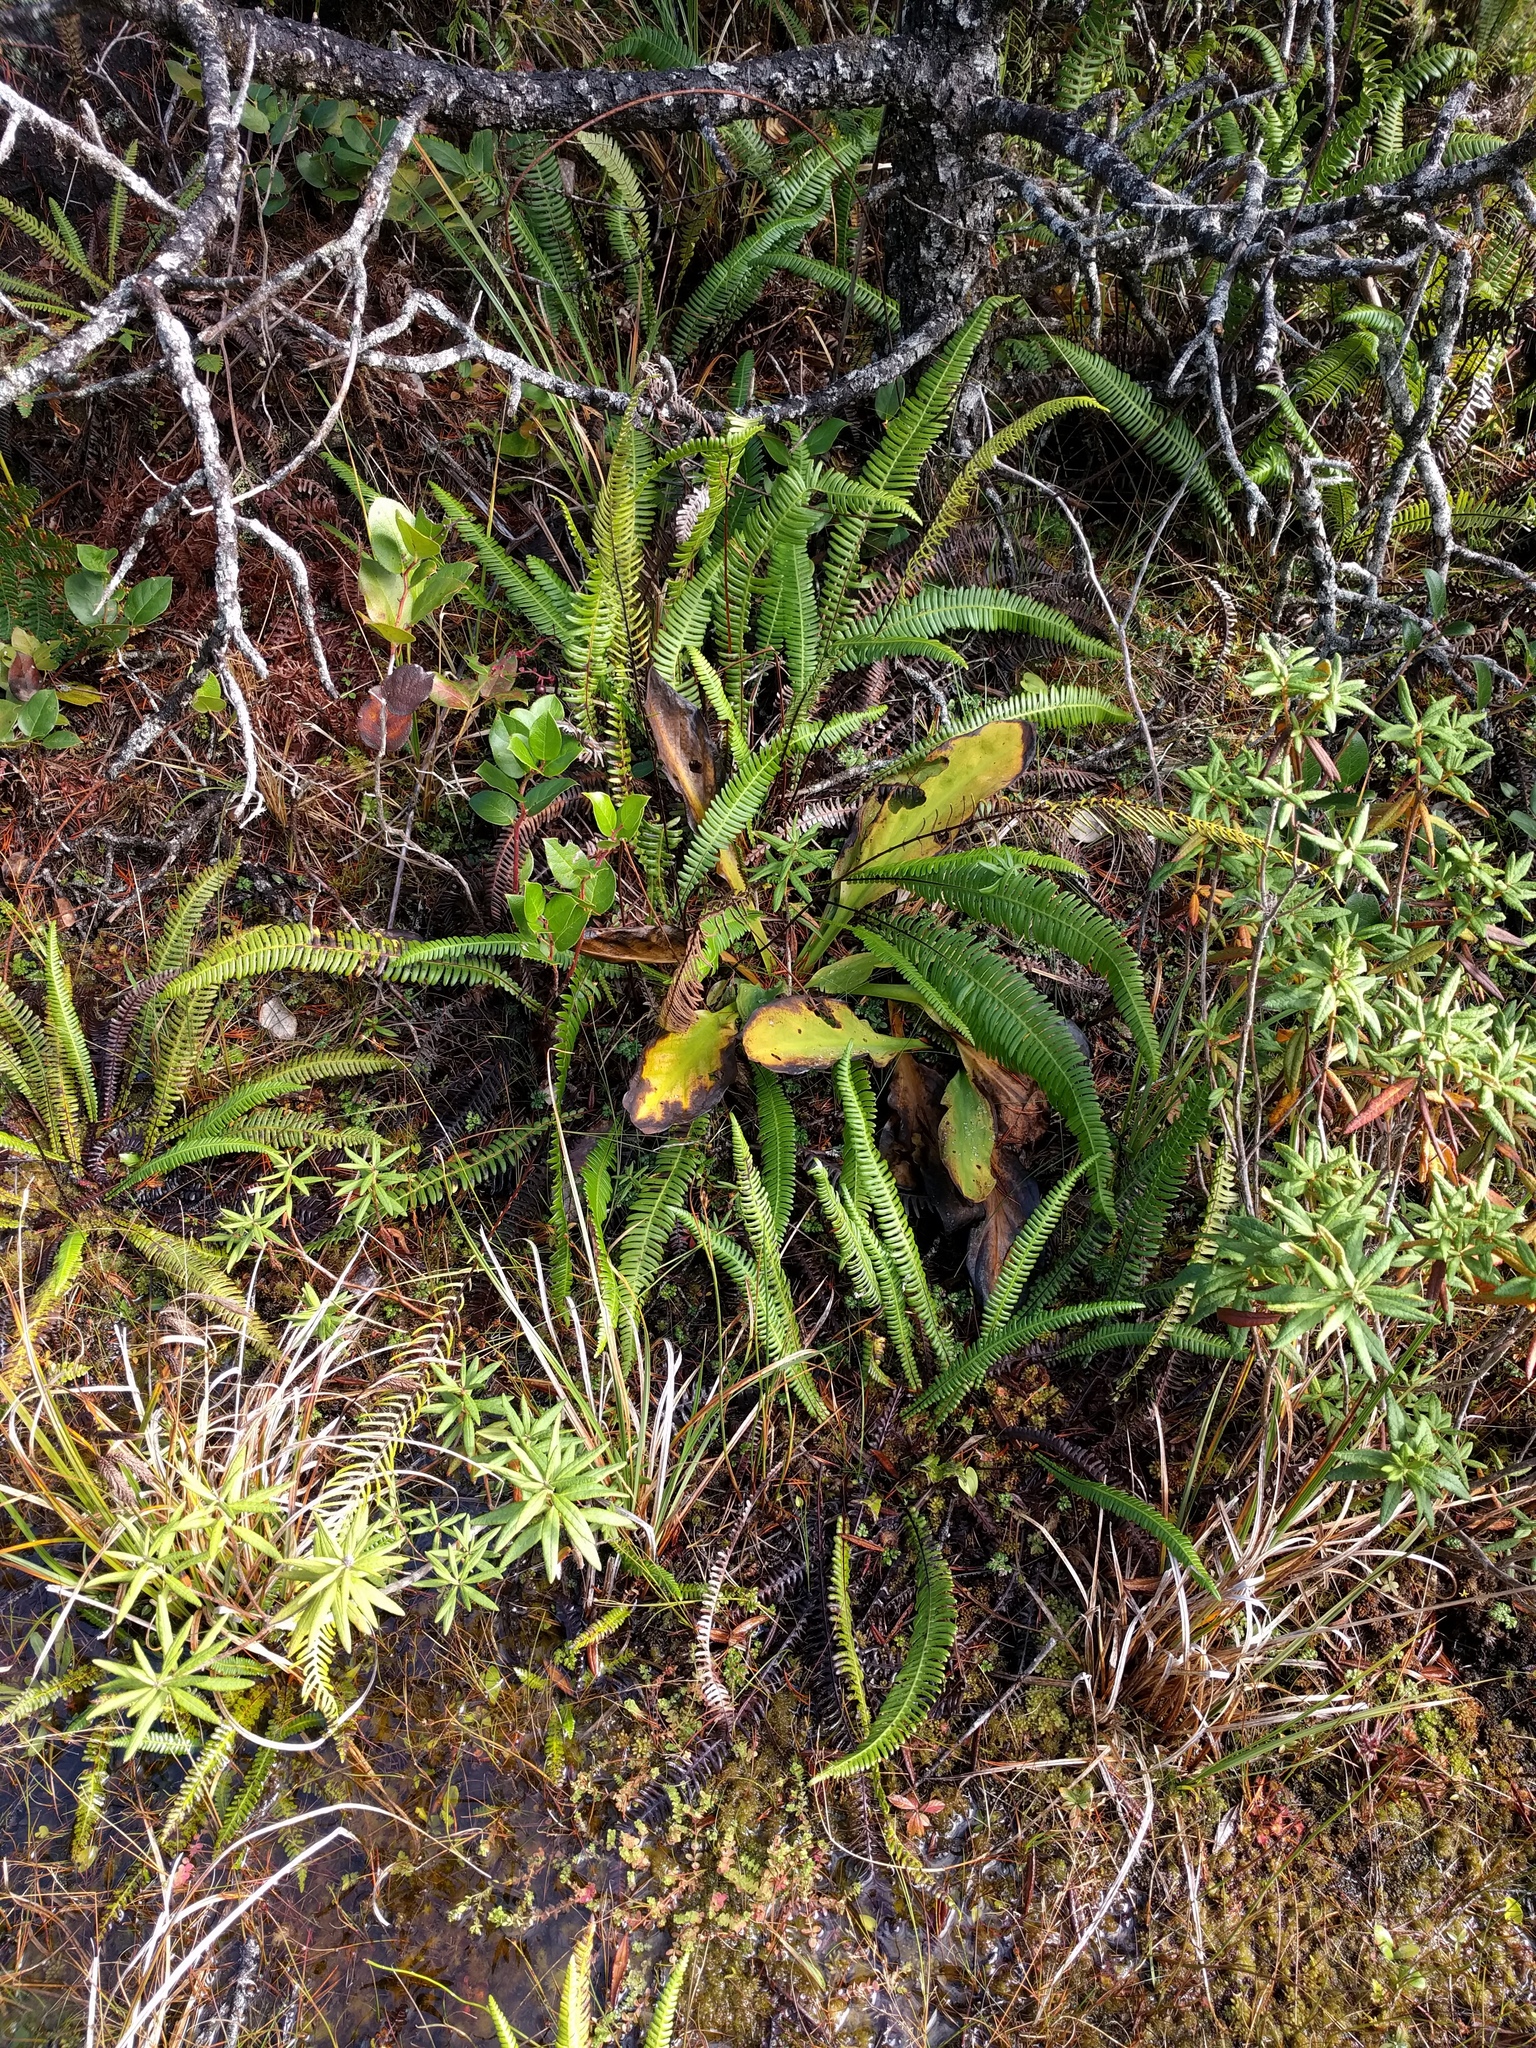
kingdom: Plantae
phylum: Tracheophyta
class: Polypodiopsida
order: Polypodiales
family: Blechnaceae
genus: Struthiopteris
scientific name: Struthiopteris spicant
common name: Deer fern
